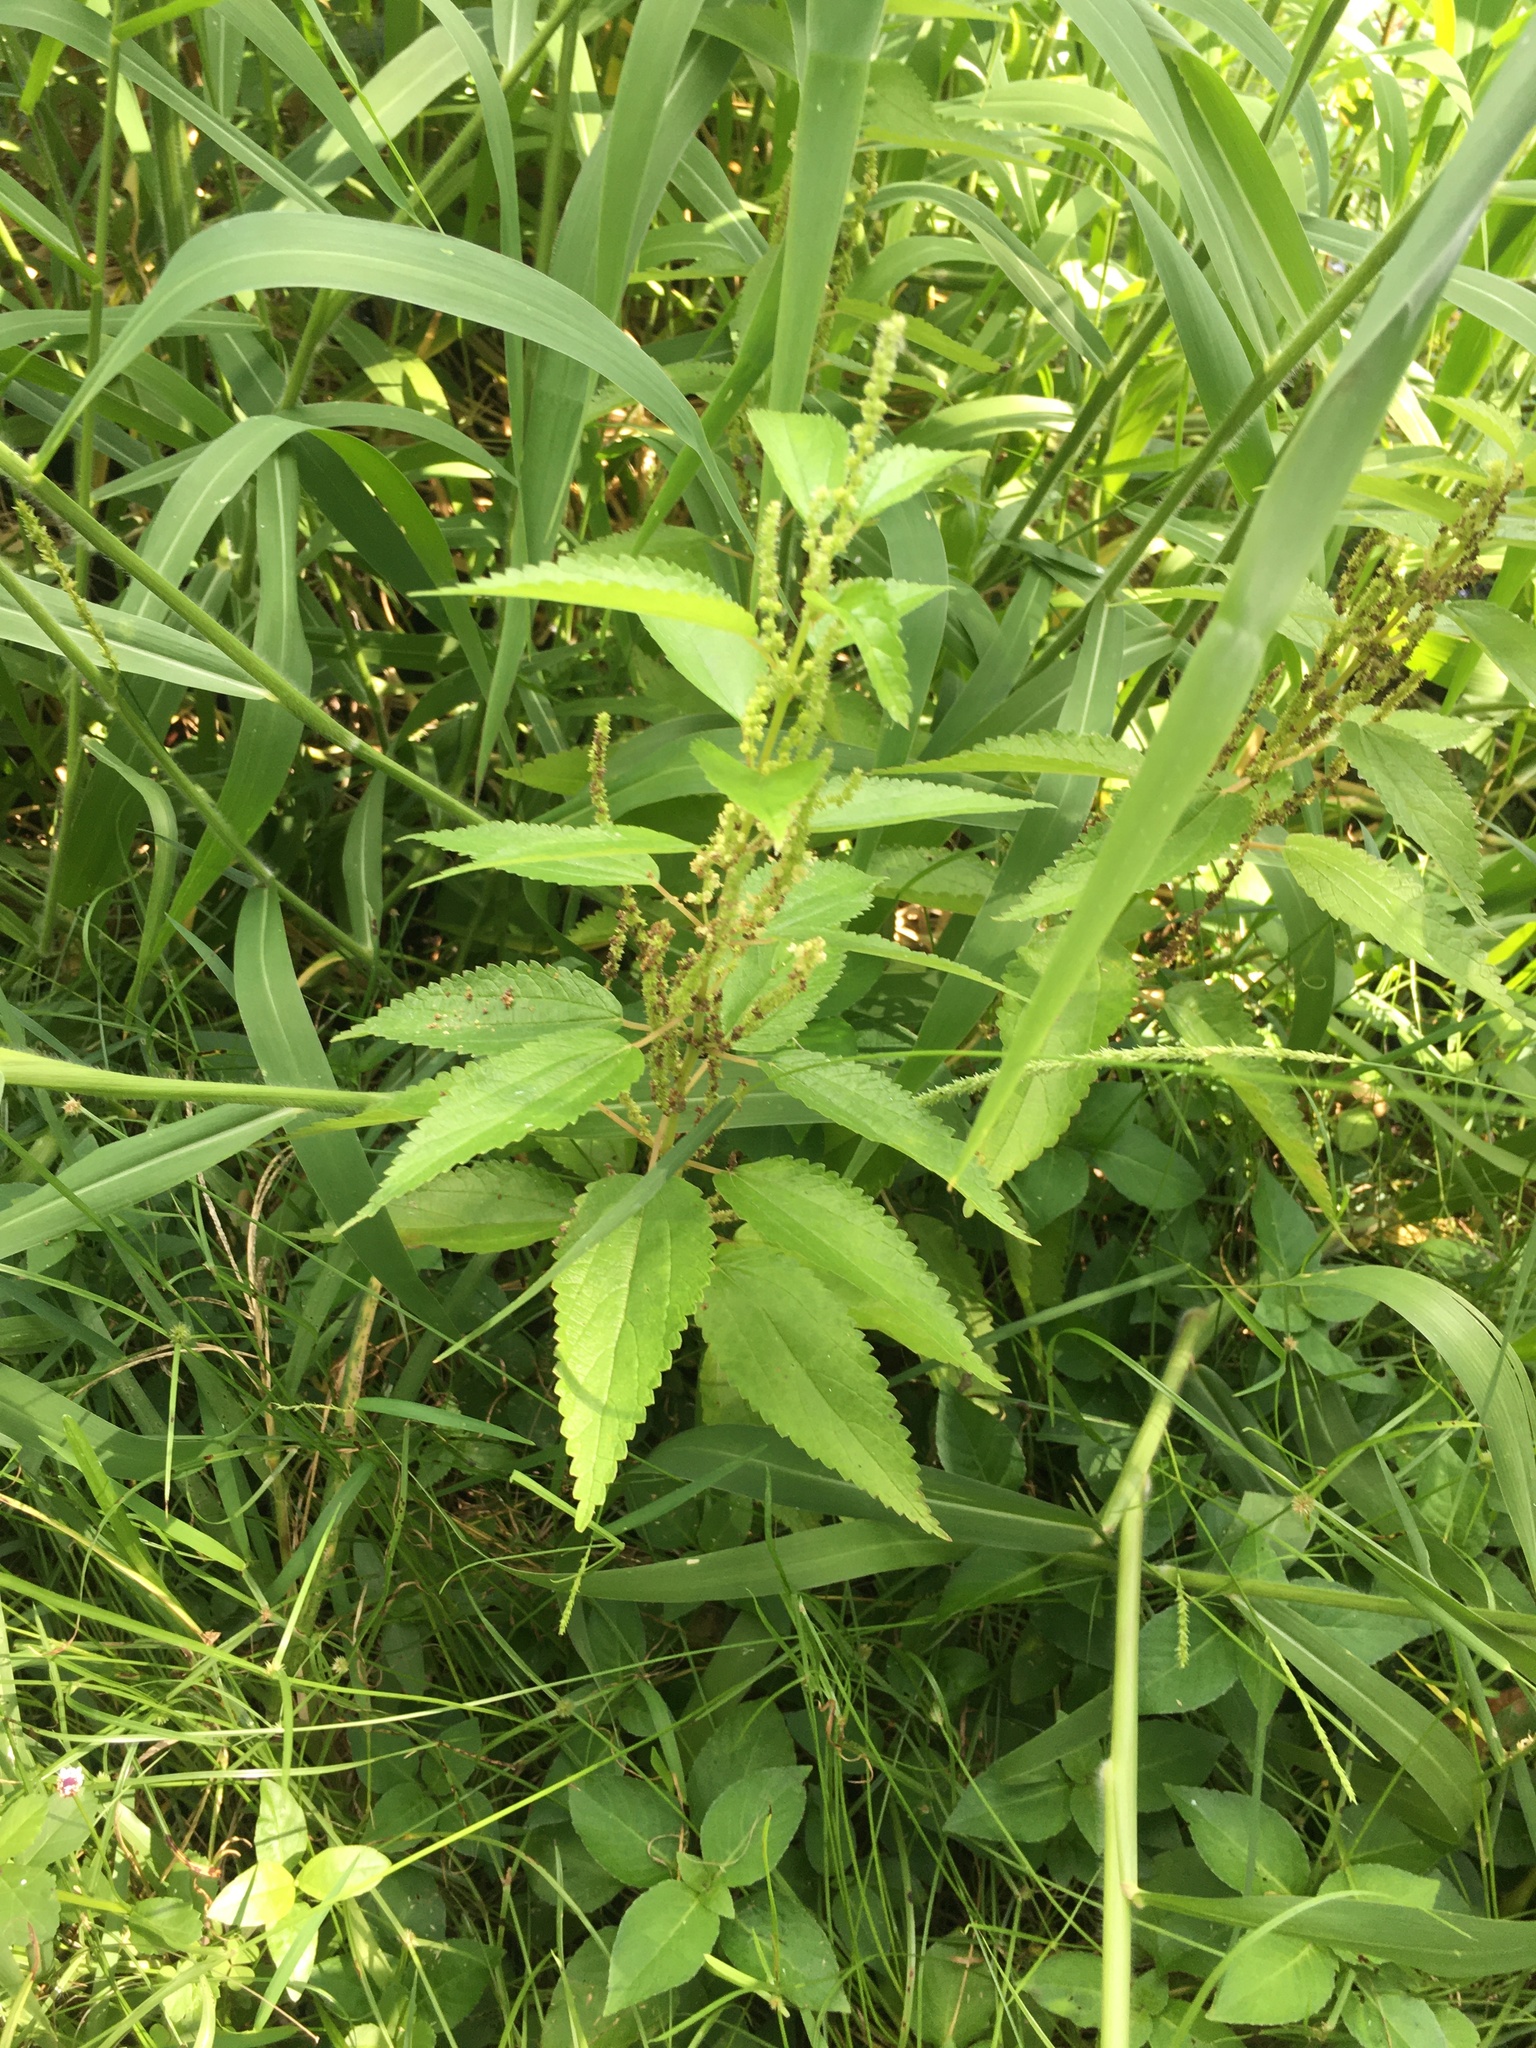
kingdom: Plantae
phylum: Tracheophyta
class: Magnoliopsida
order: Rosales
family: Urticaceae
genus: Boehmeria
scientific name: Boehmeria cylindrica
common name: Bog-hemp
